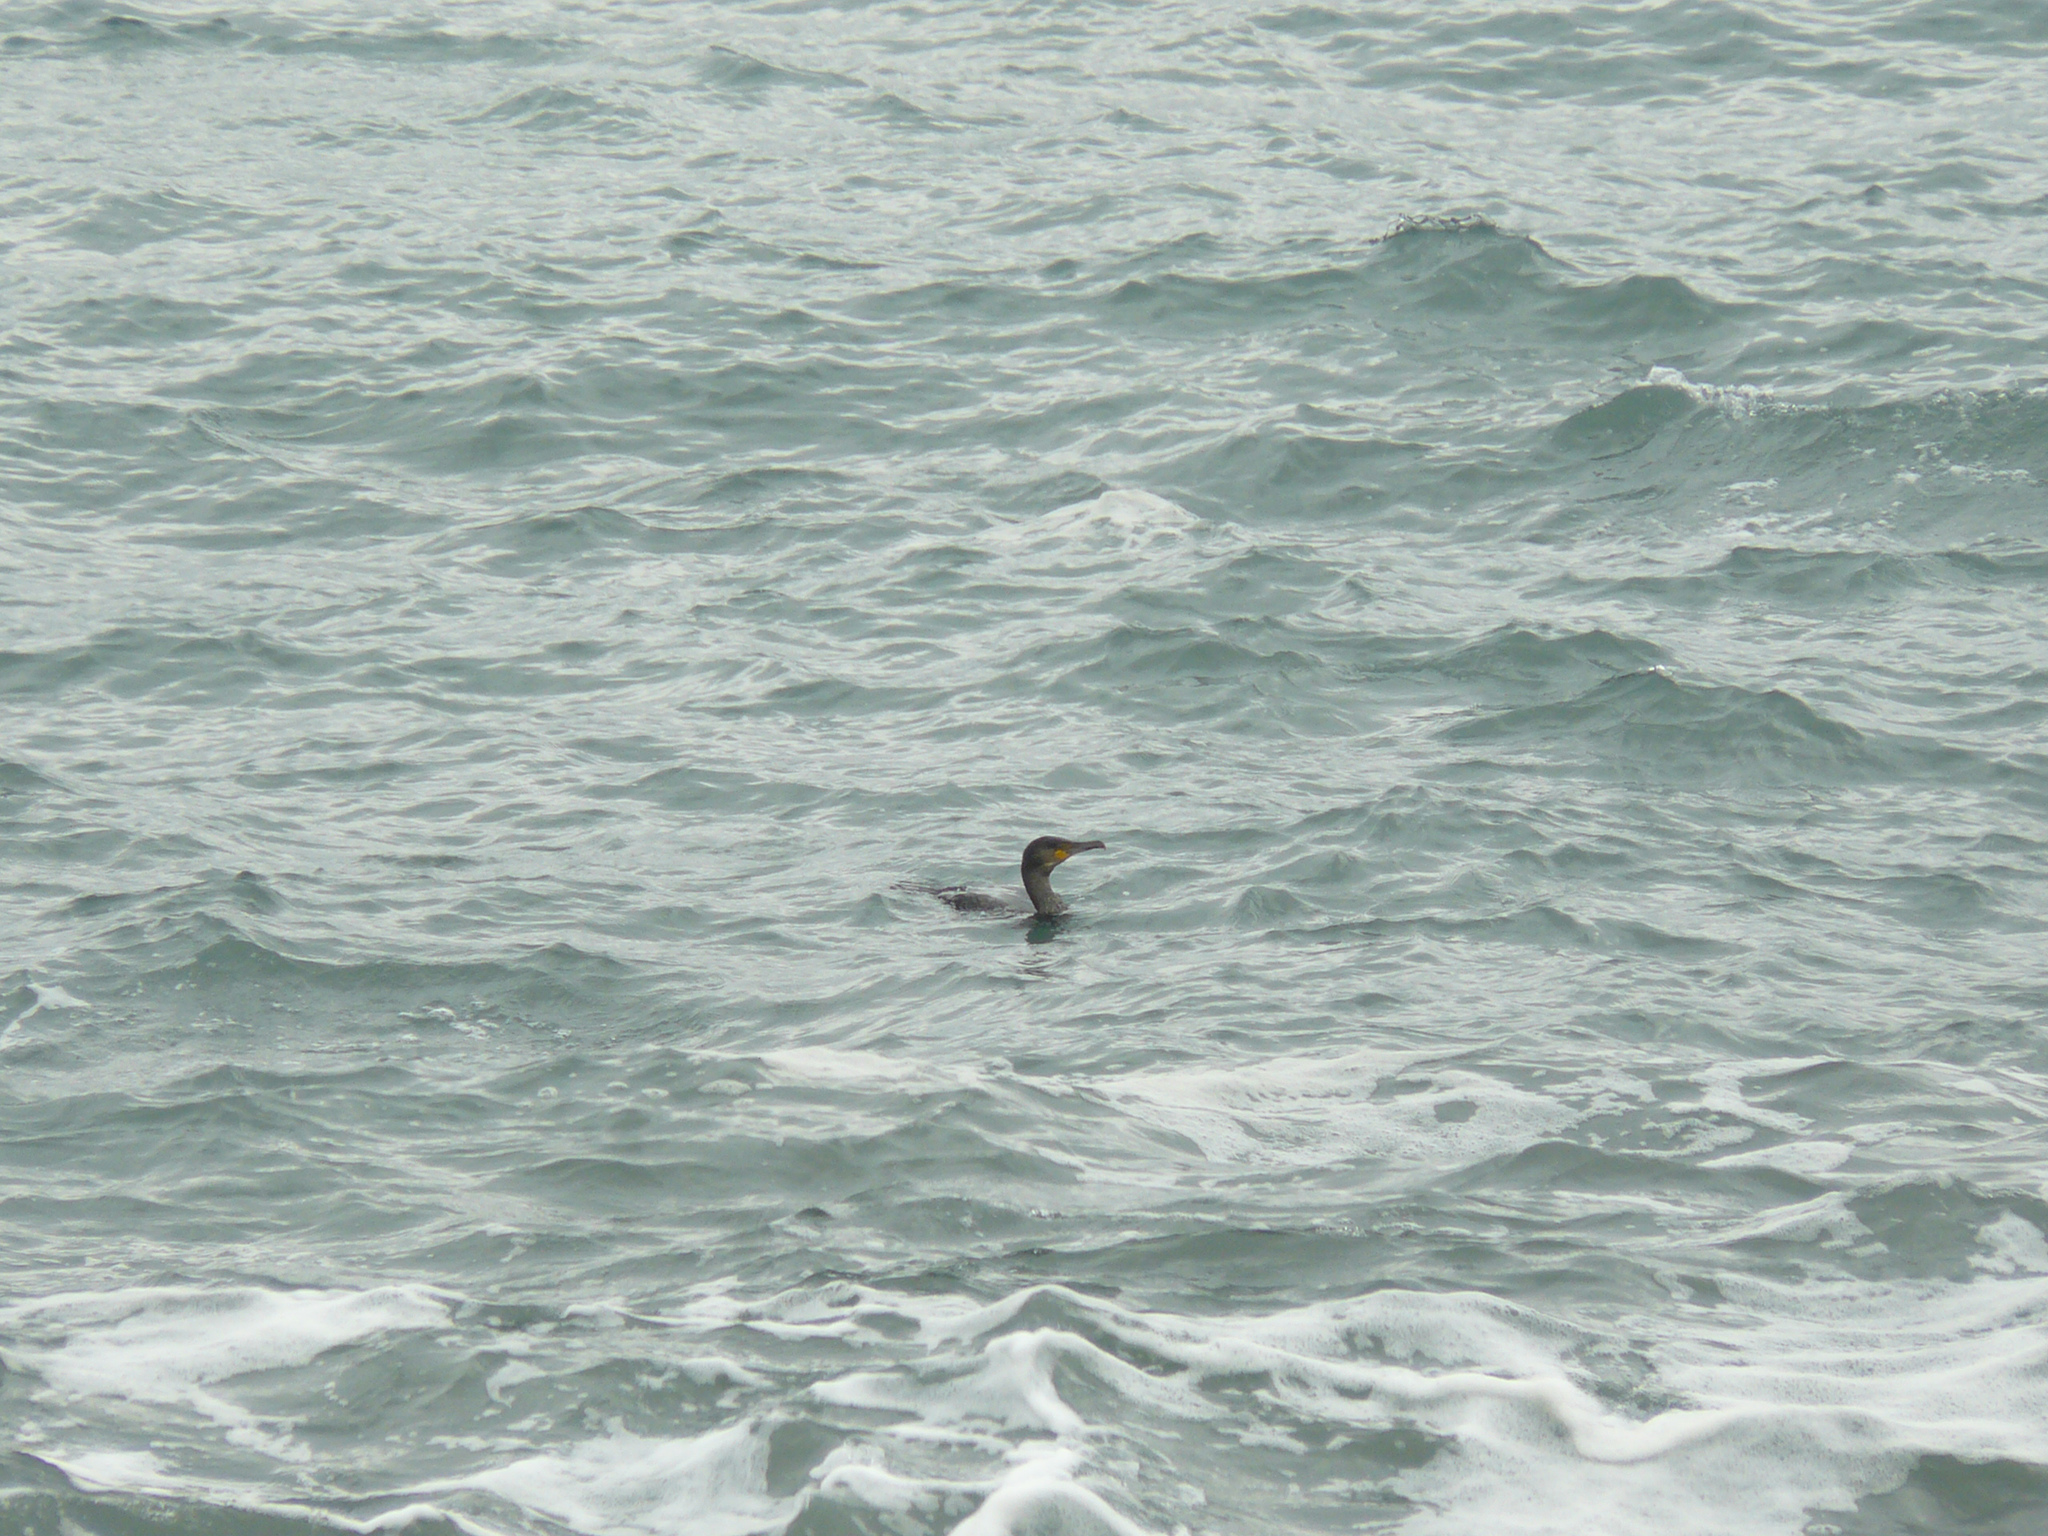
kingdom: Animalia
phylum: Chordata
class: Aves
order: Suliformes
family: Phalacrocoracidae
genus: Phalacrocorax
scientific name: Phalacrocorax carbo
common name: Great cormorant
